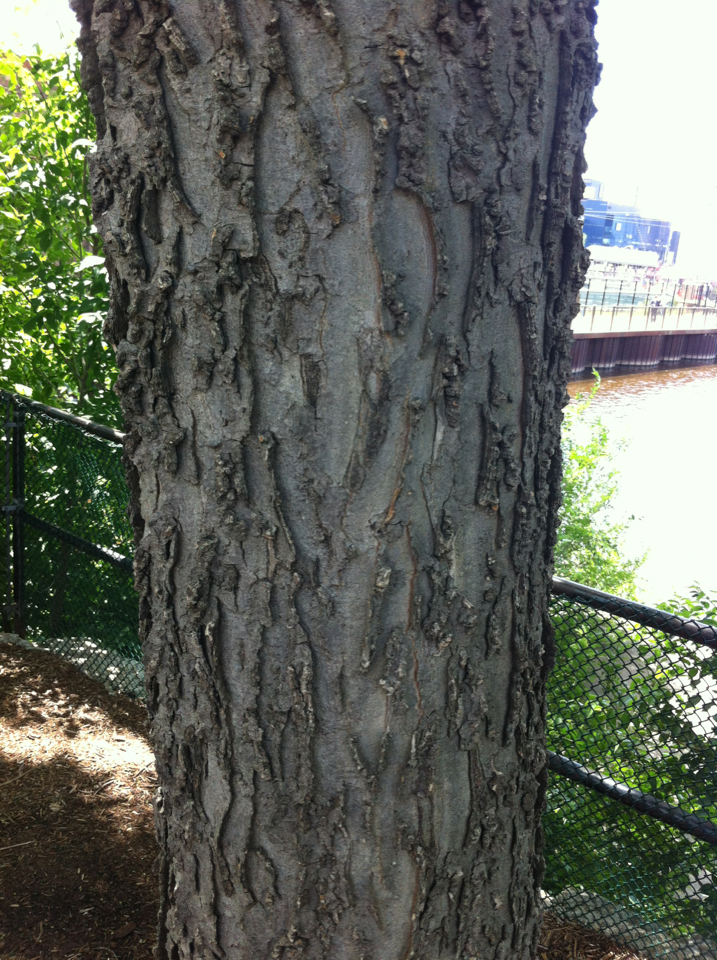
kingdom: Plantae
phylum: Tracheophyta
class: Magnoliopsida
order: Rosales
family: Cannabaceae
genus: Celtis
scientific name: Celtis occidentalis
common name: Common hackberry
